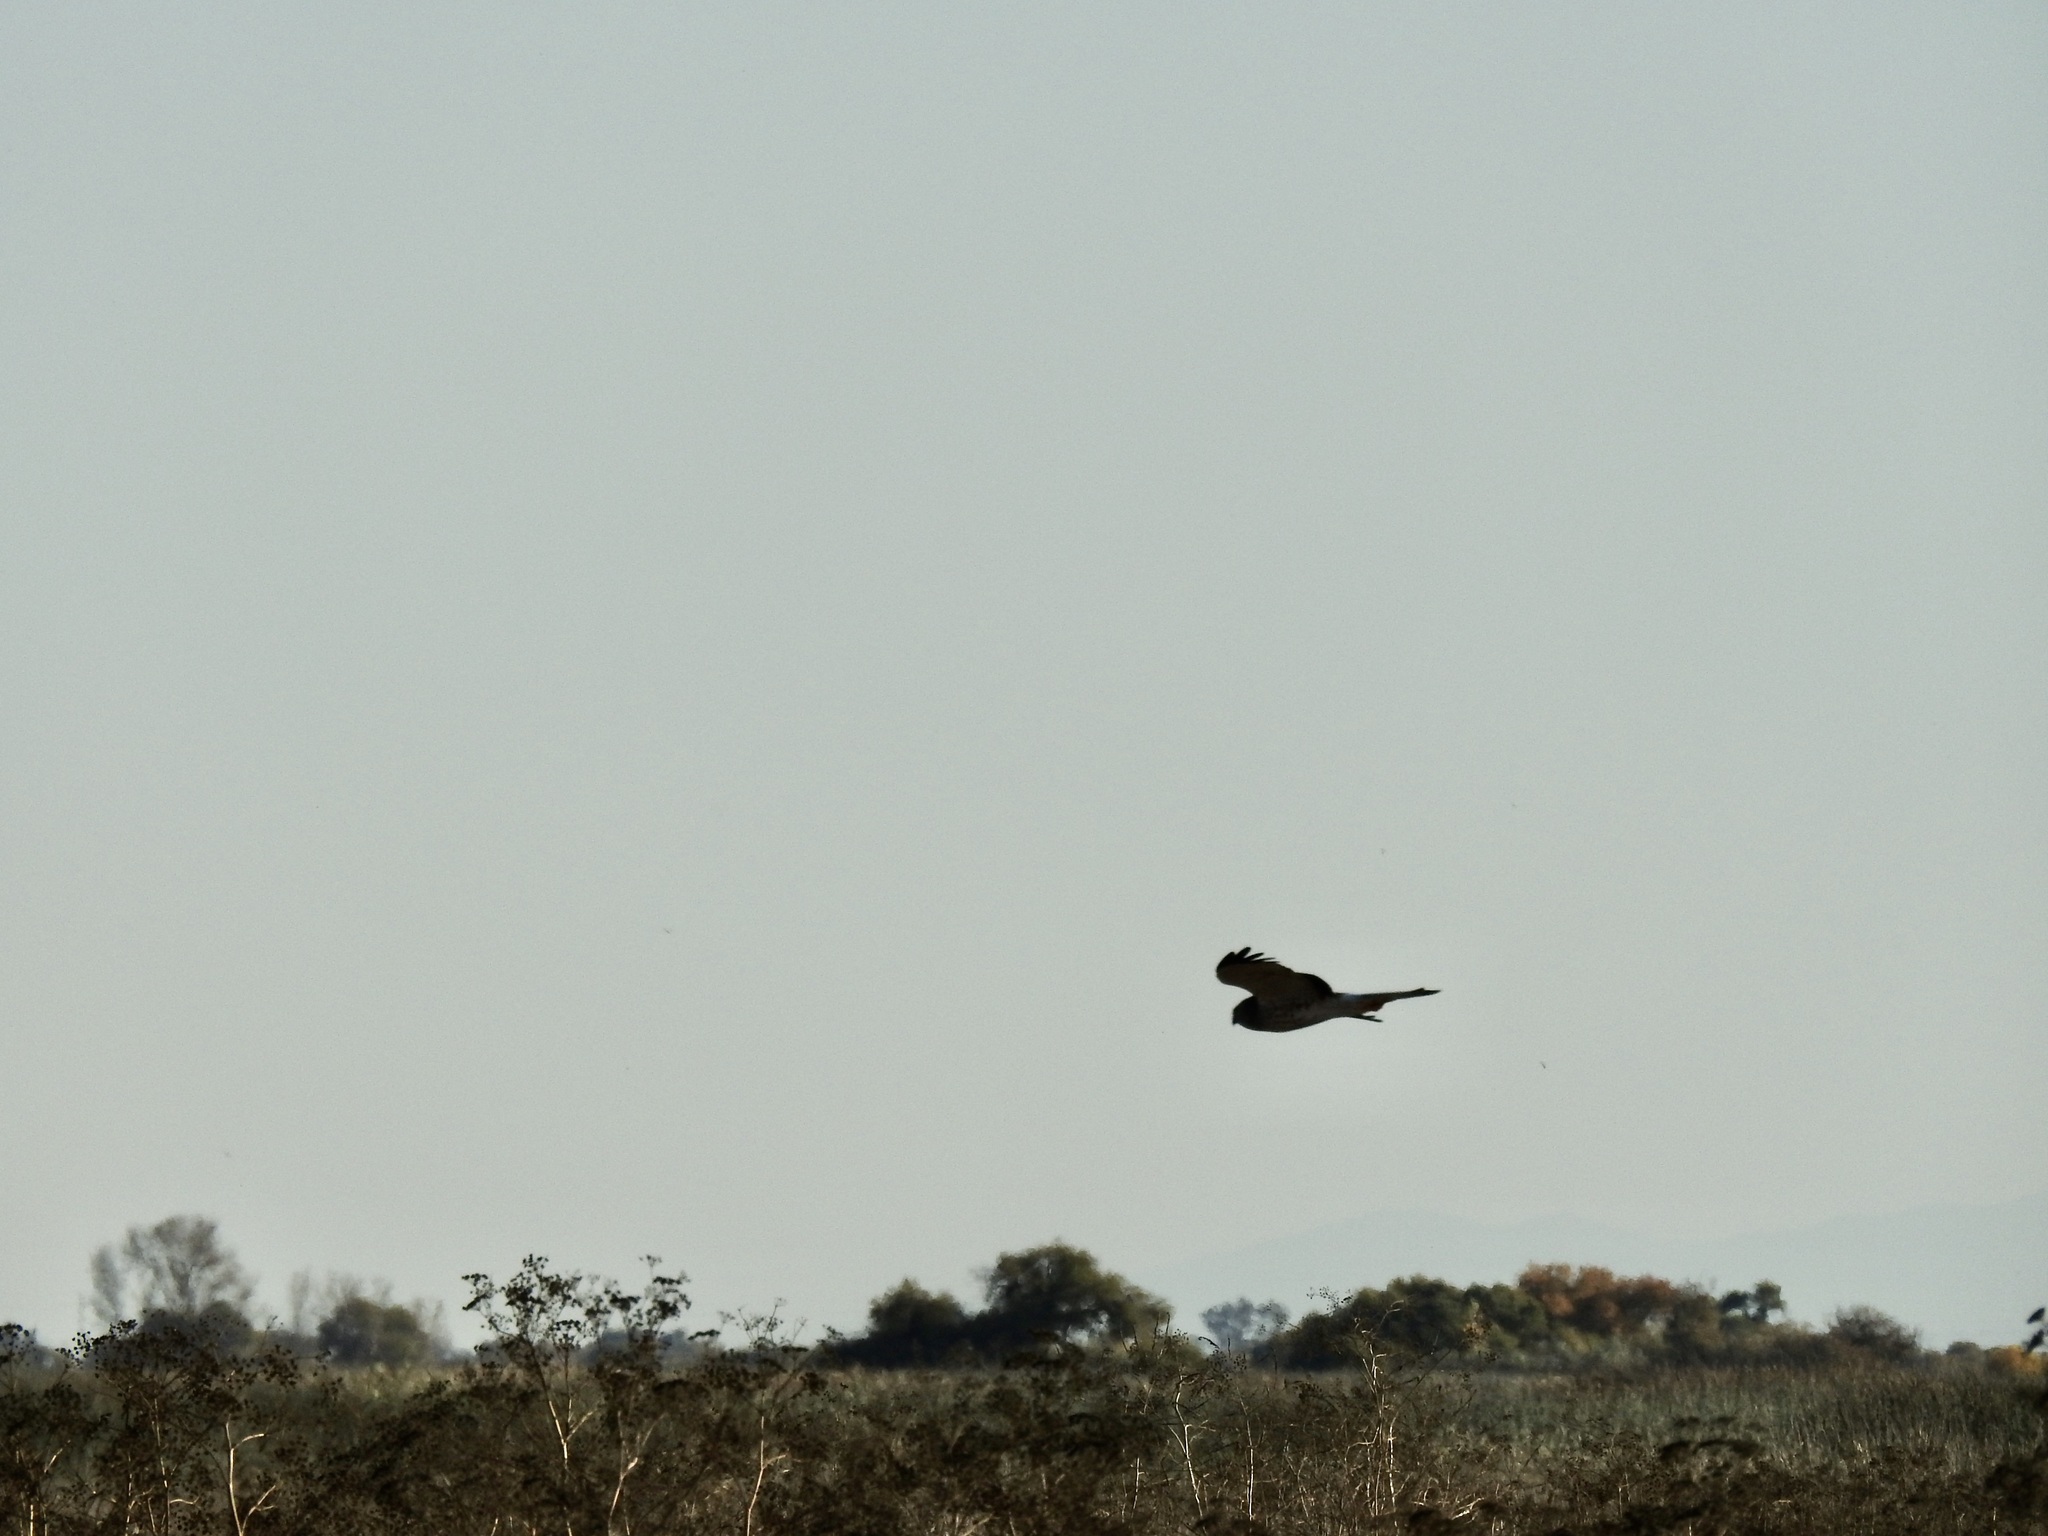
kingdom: Animalia
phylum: Chordata
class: Aves
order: Accipitriformes
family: Accipitridae
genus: Circus
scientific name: Circus cyaneus
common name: Hen harrier
